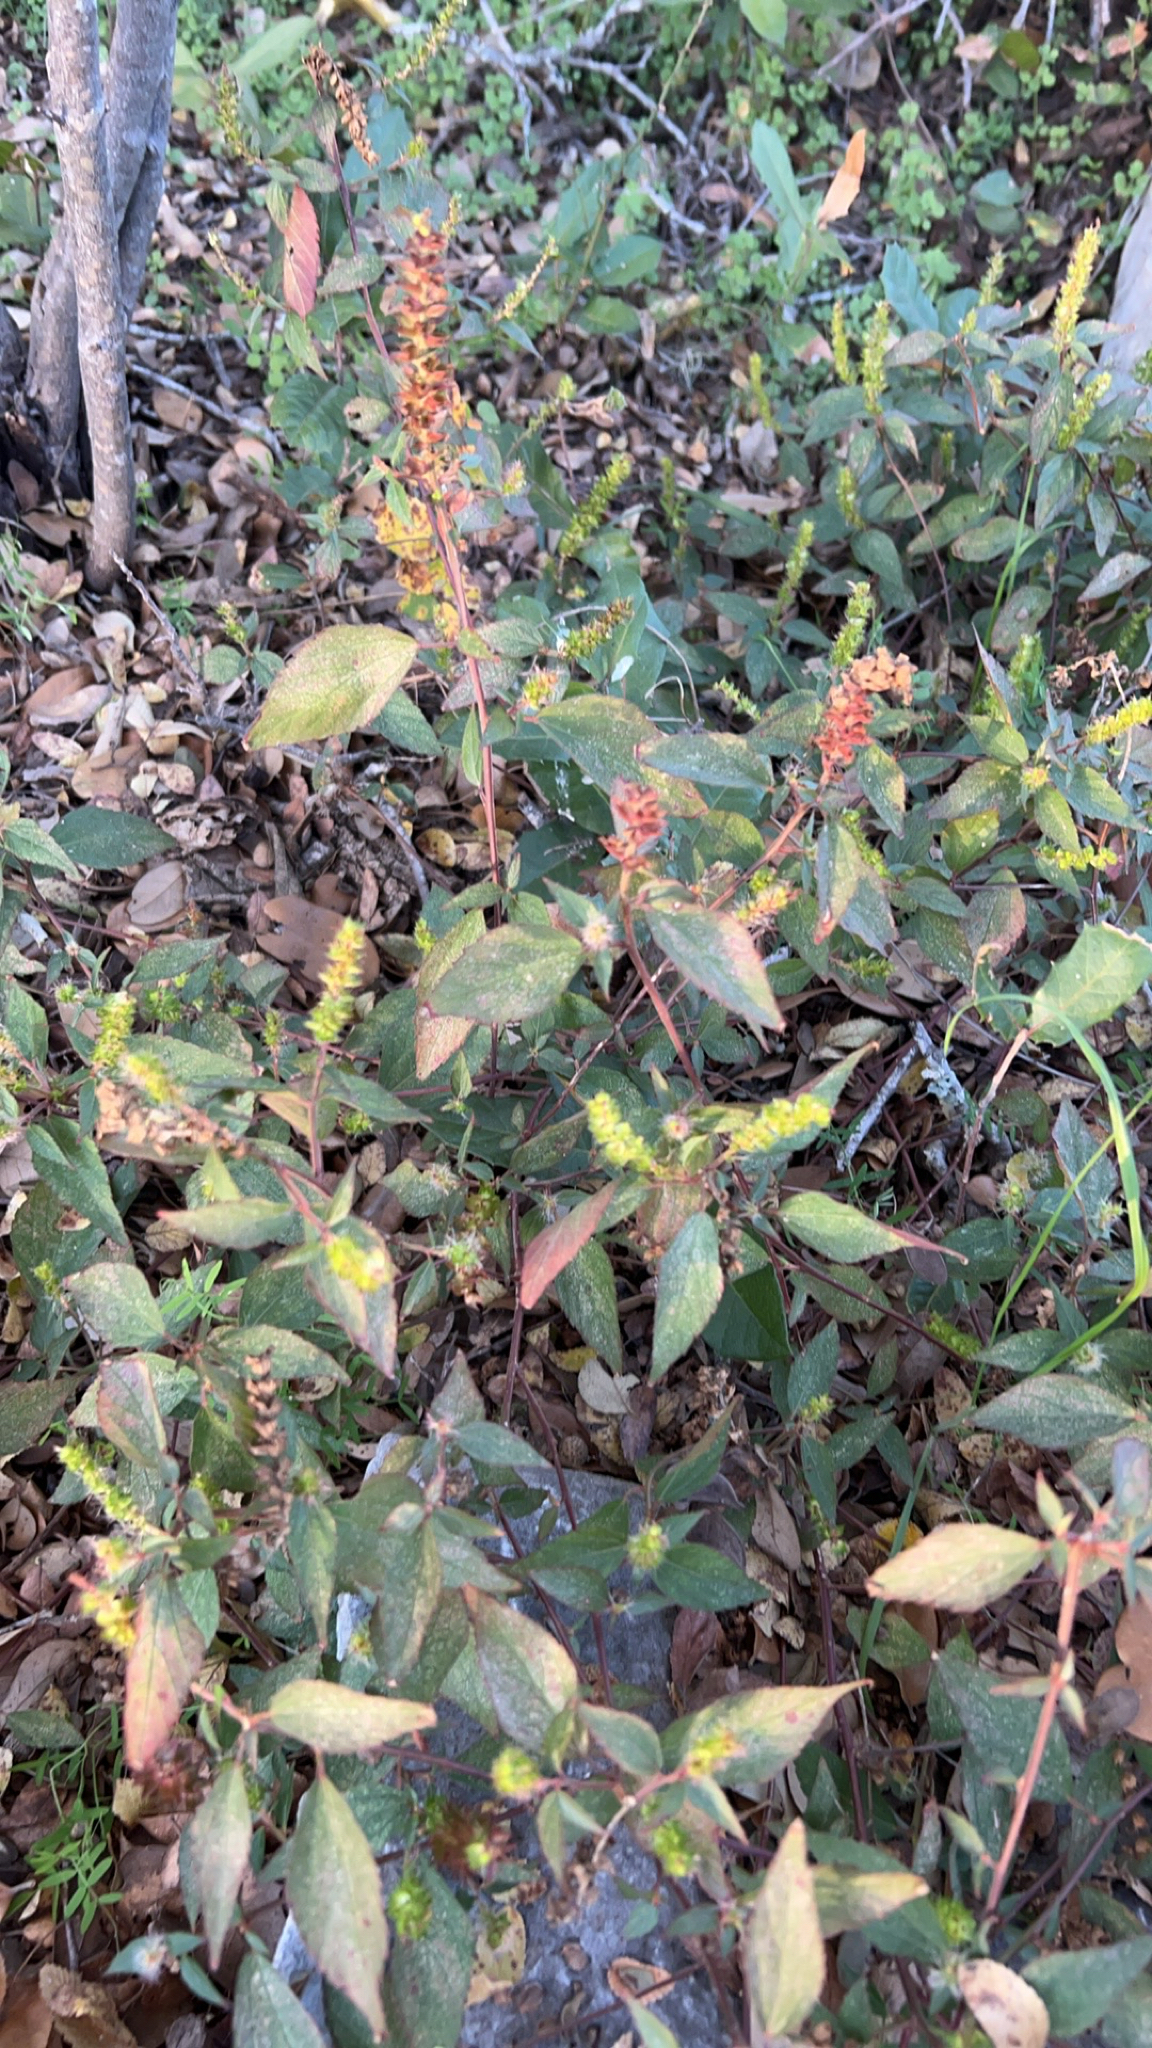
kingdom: Plantae
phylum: Tracheophyta
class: Magnoliopsida
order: Malpighiales
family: Euphorbiaceae
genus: Acalypha
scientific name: Acalypha phleoides
